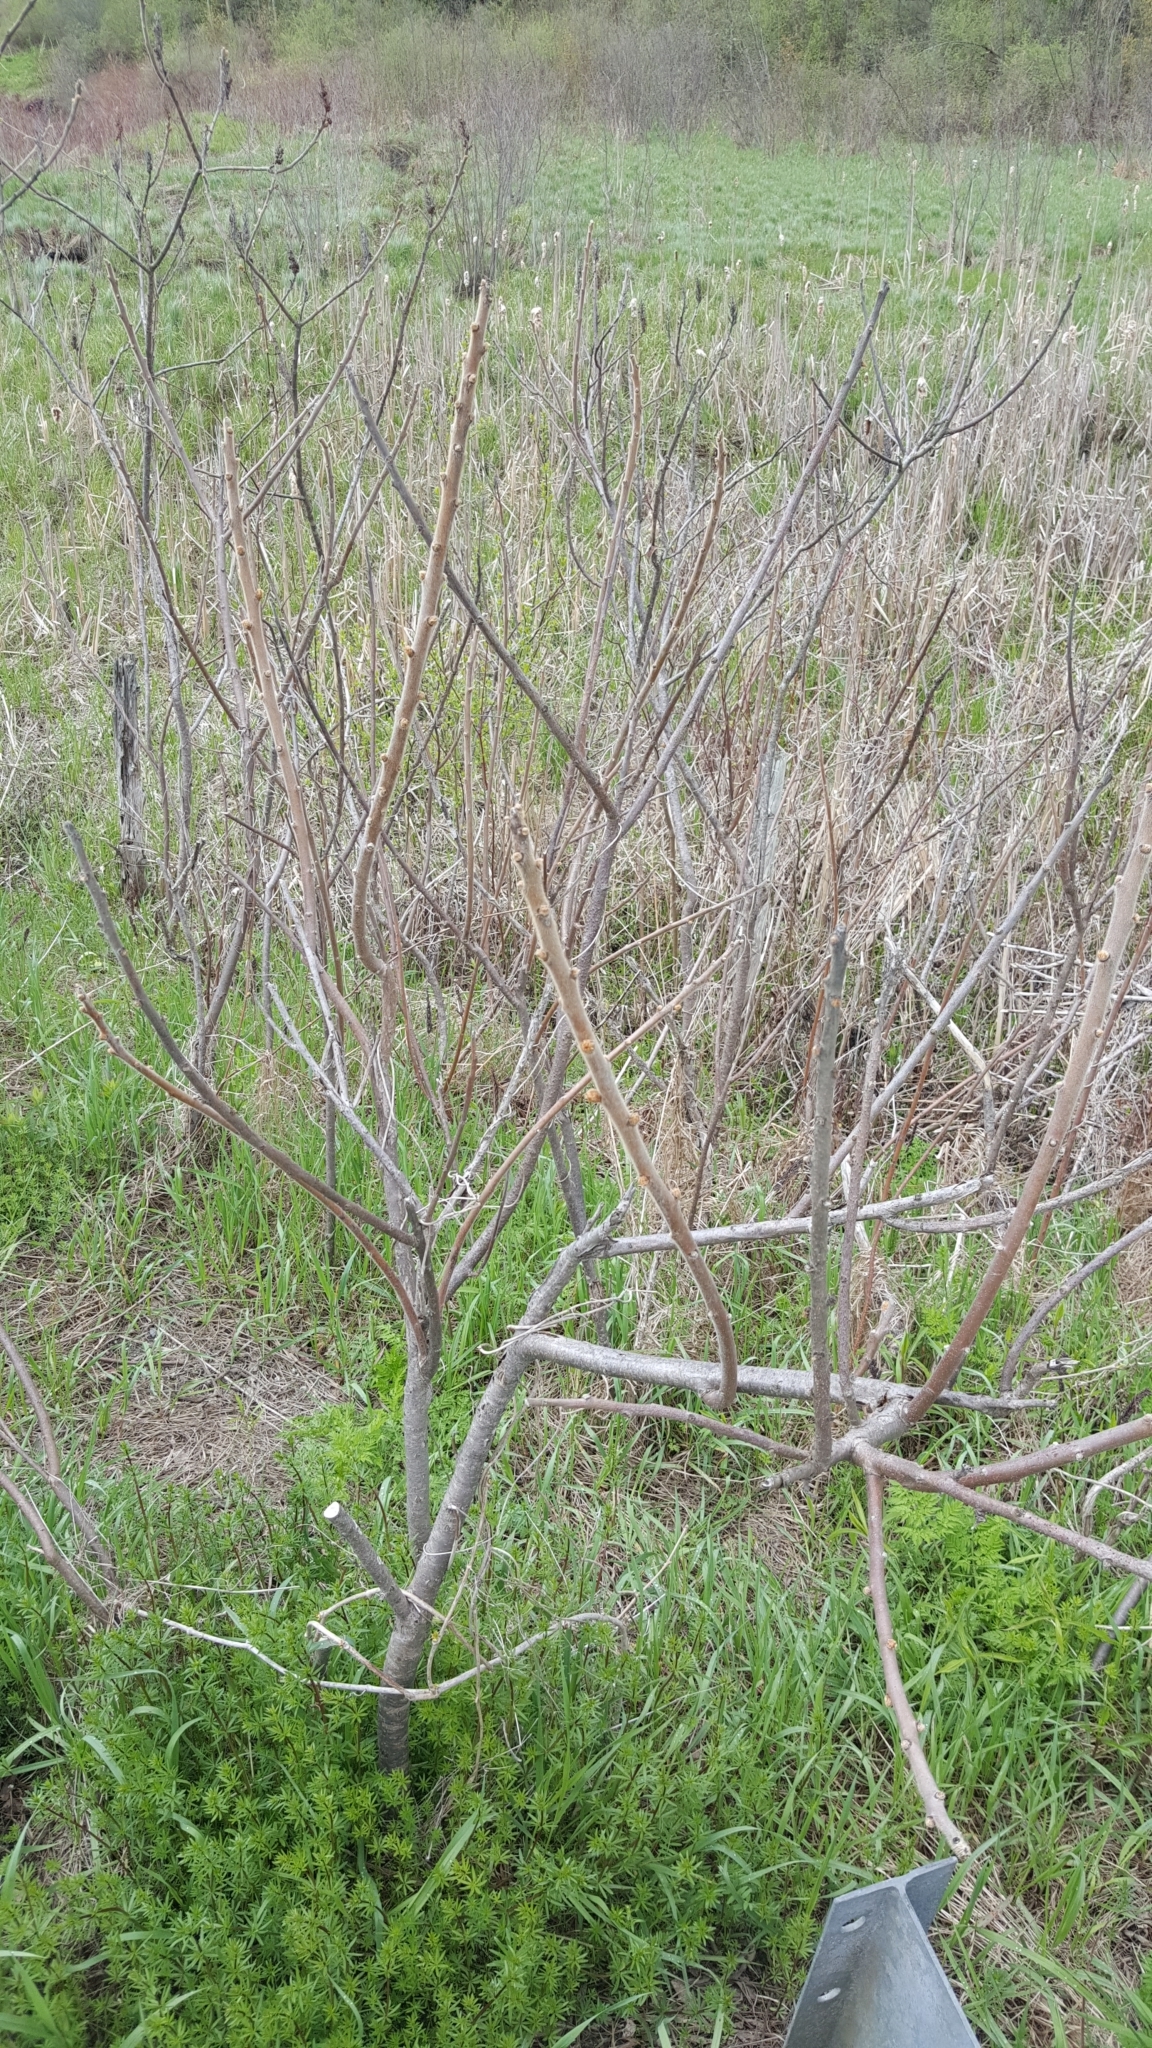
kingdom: Plantae
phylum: Tracheophyta
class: Magnoliopsida
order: Sapindales
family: Anacardiaceae
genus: Rhus
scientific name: Rhus typhina
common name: Staghorn sumac
